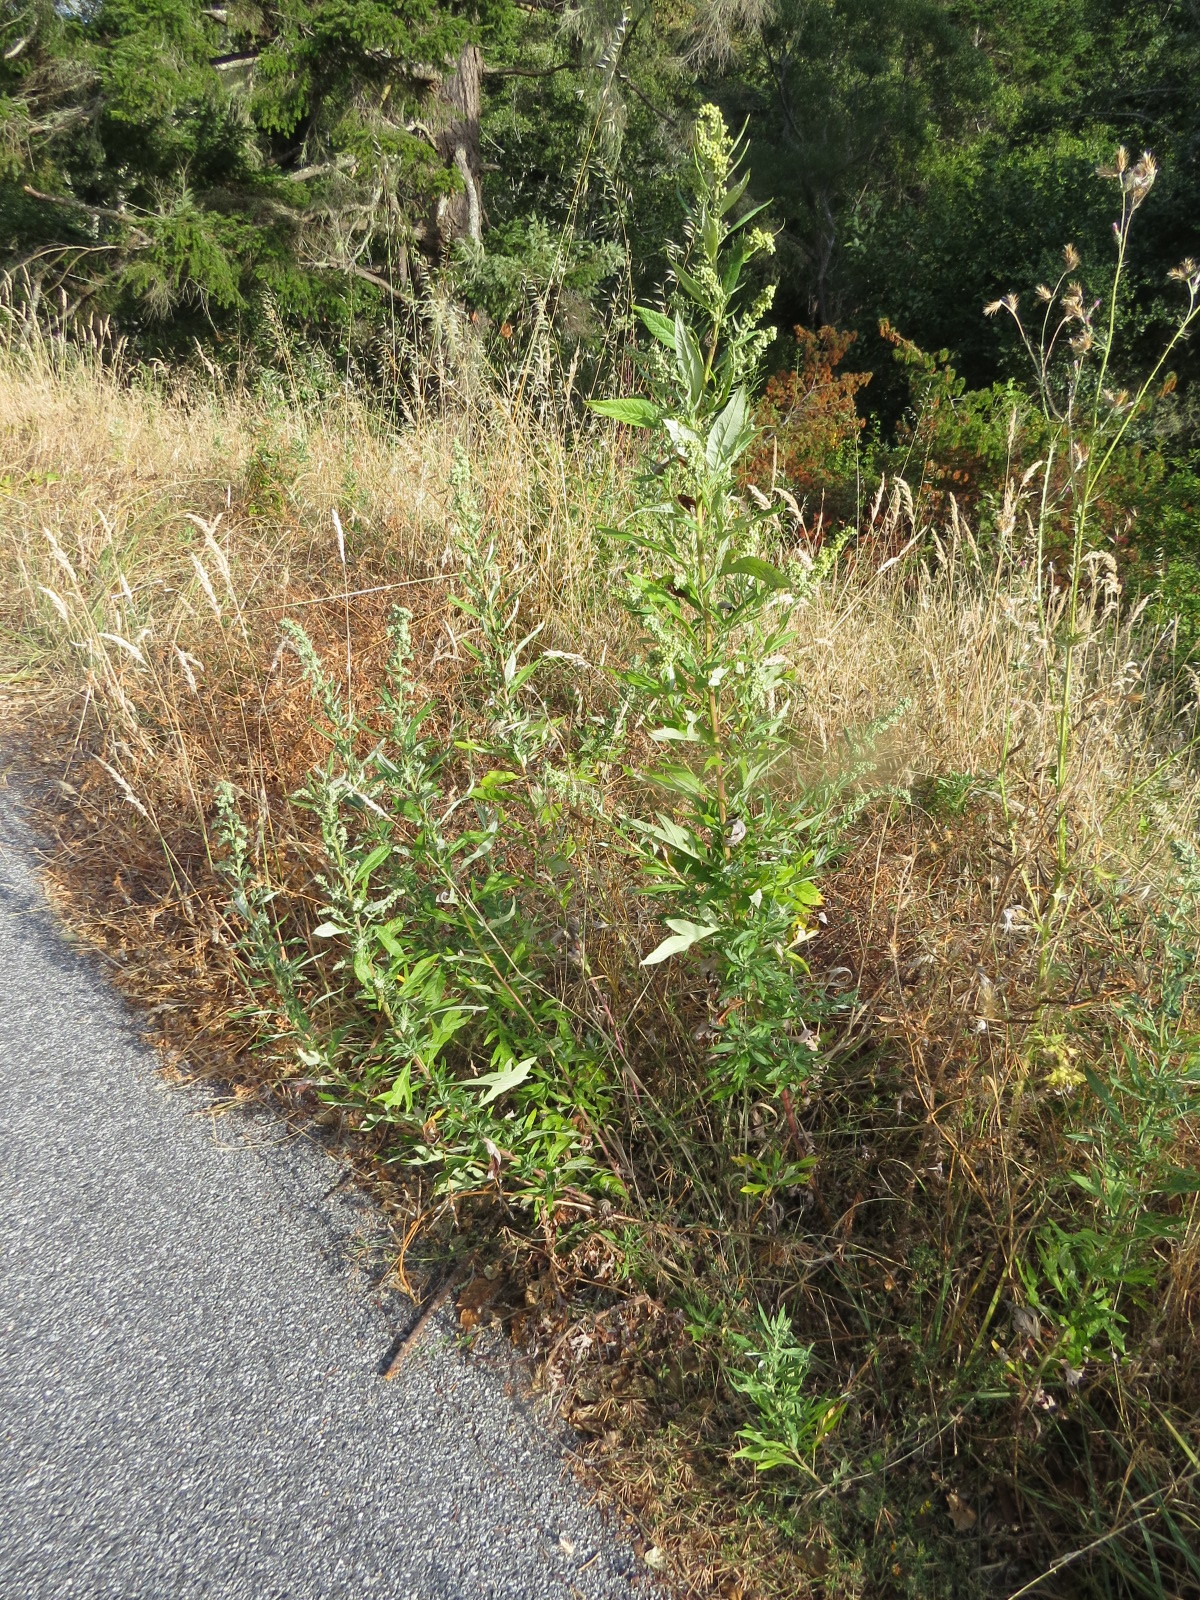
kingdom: Plantae
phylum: Tracheophyta
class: Magnoliopsida
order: Asterales
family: Asteraceae
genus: Artemisia
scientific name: Artemisia douglasiana
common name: Northwest mugwort
